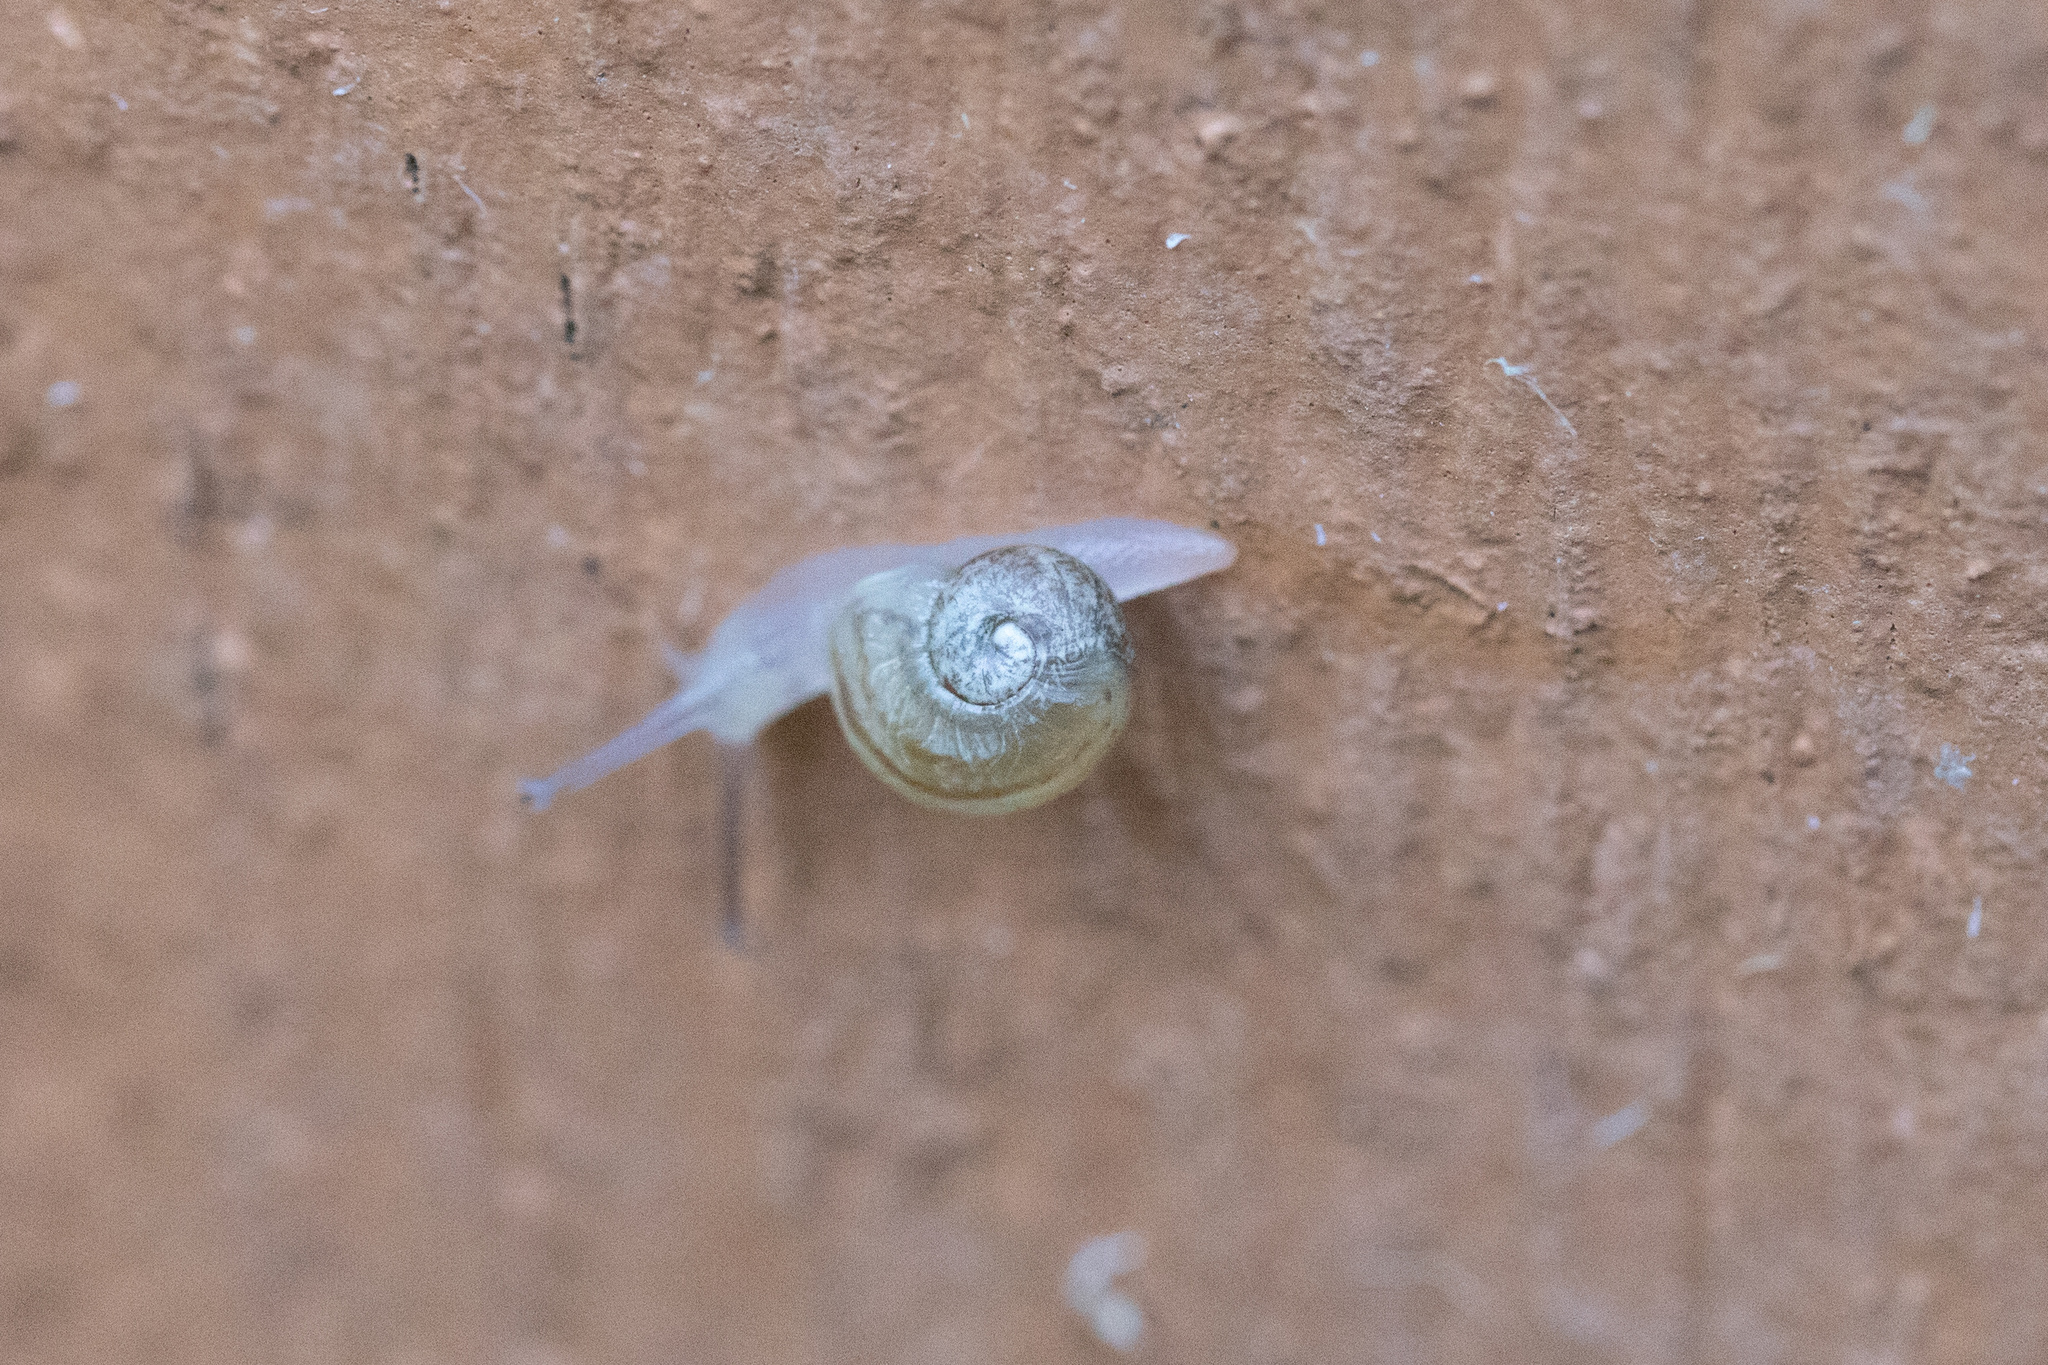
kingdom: Animalia
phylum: Mollusca
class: Gastropoda
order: Stylommatophora
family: Helicidae
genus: Cornu
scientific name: Cornu aspersum
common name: Brown garden snail
